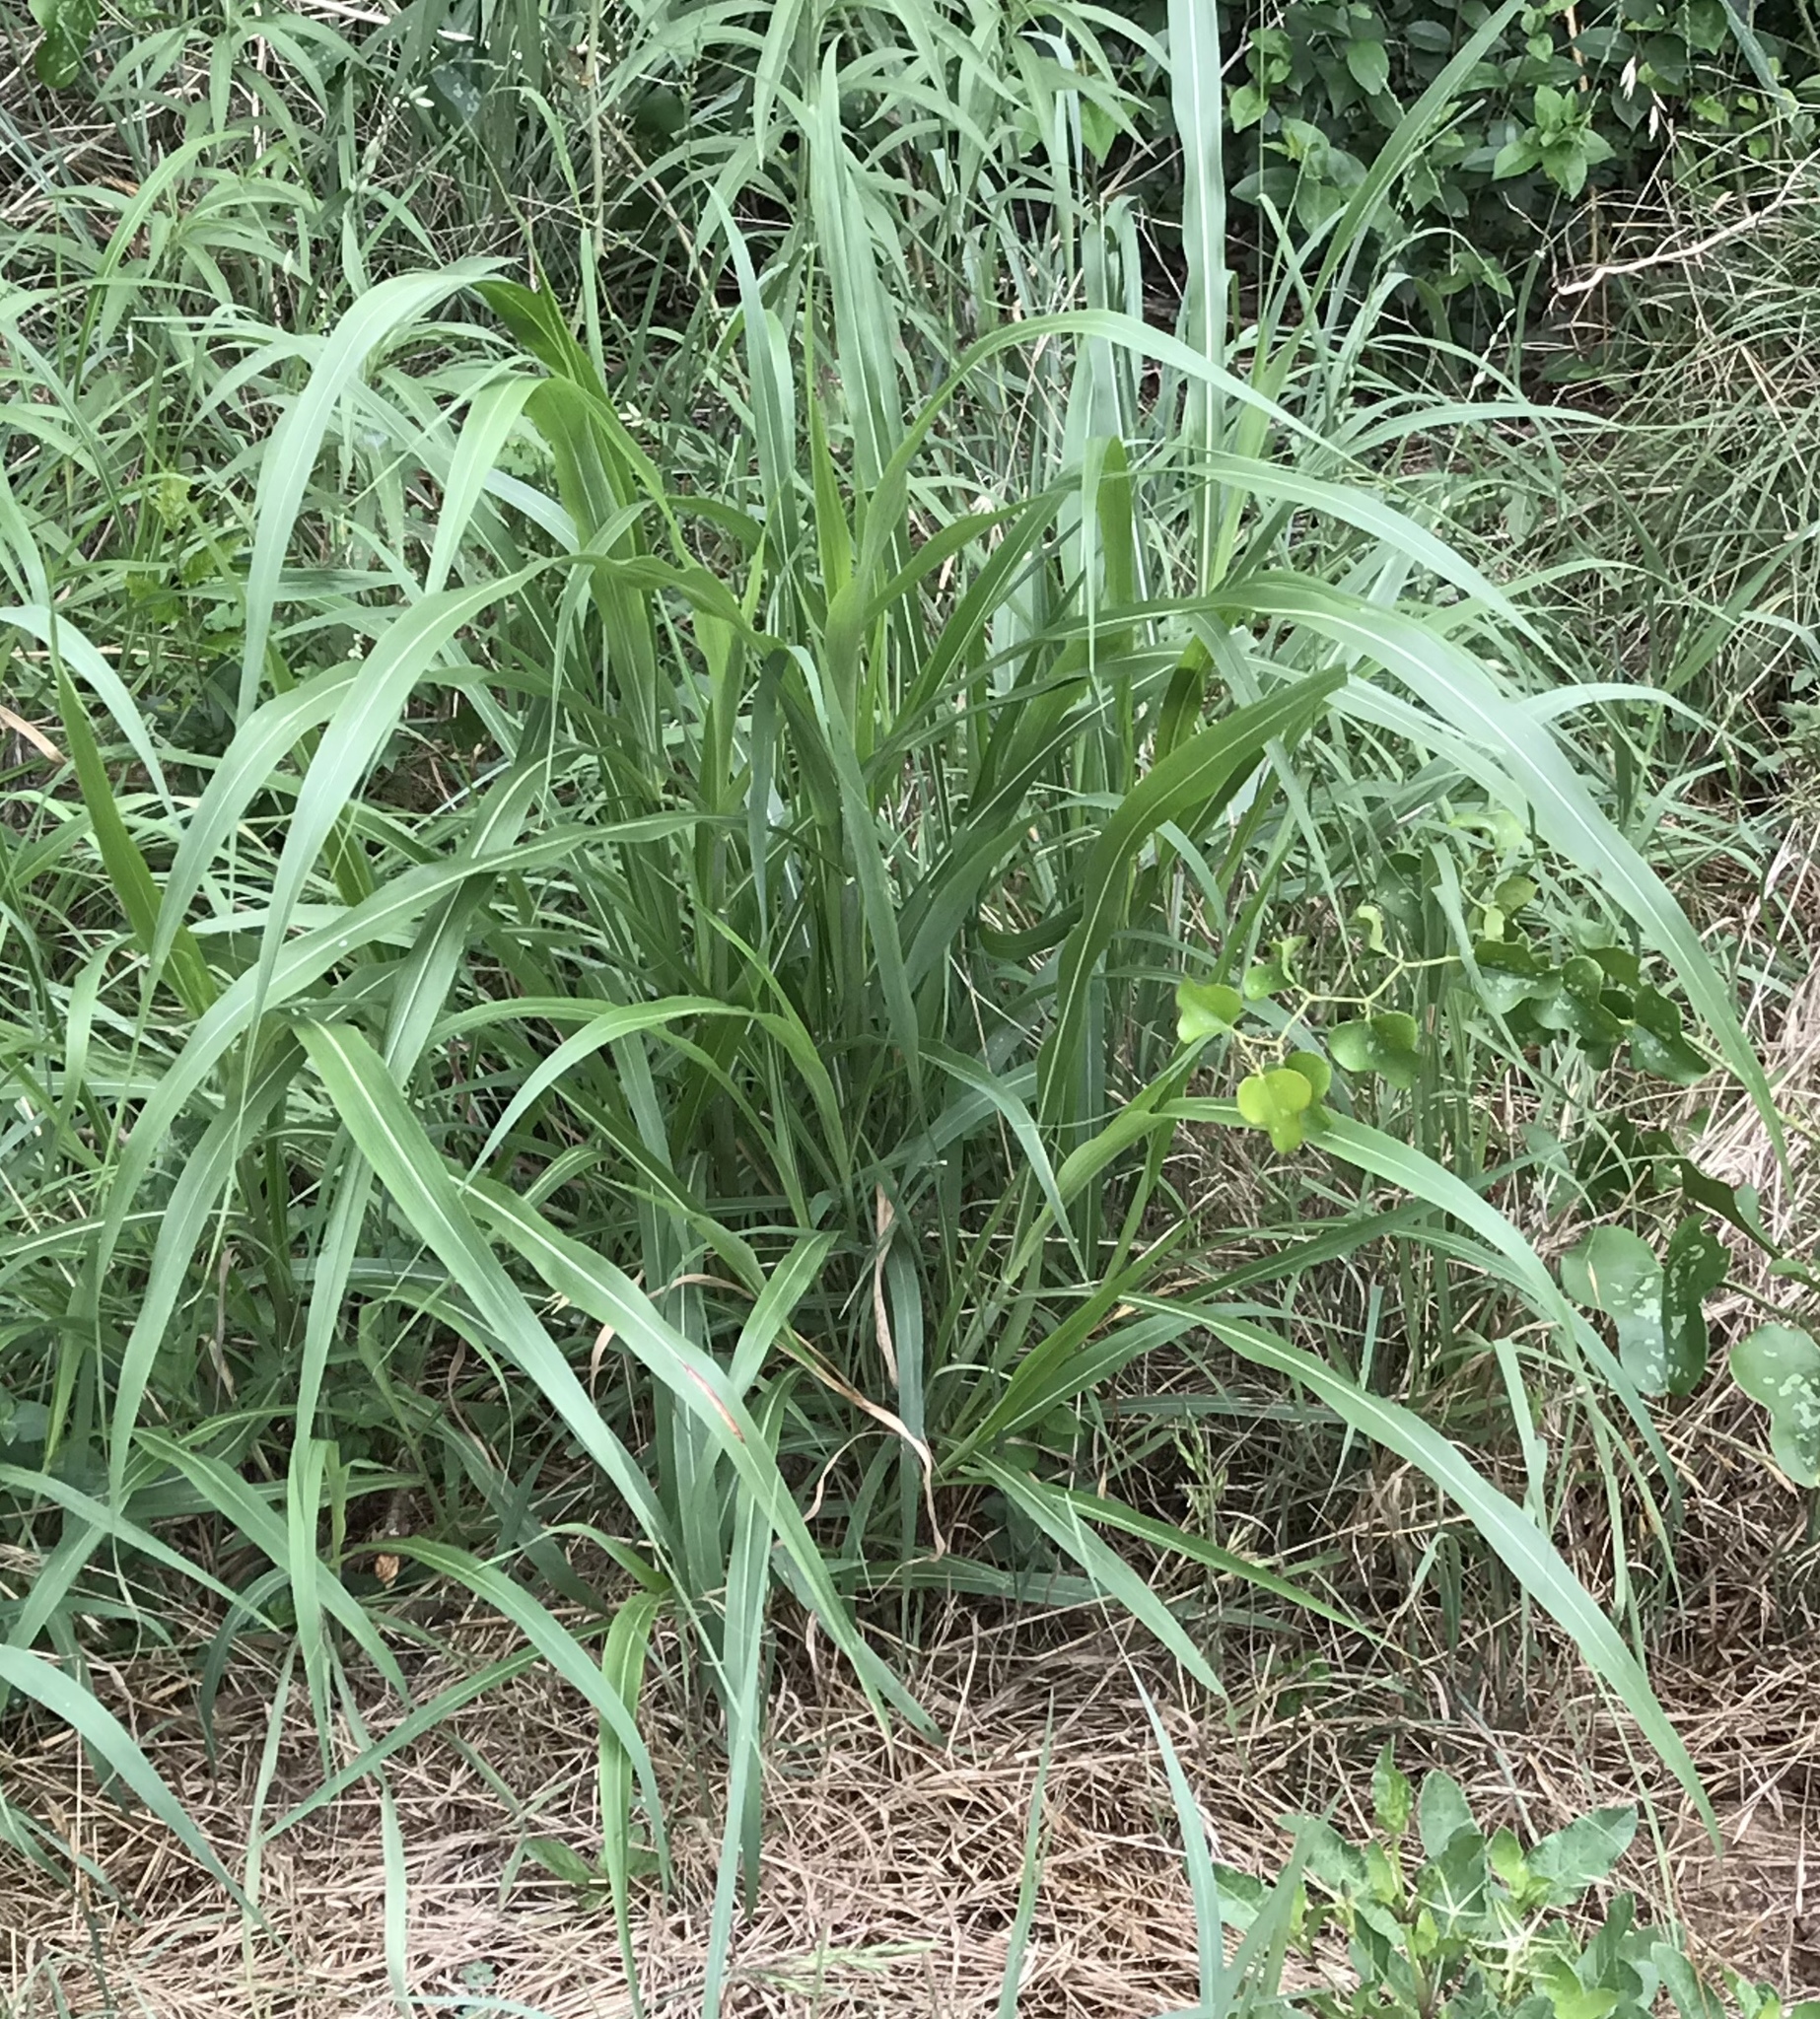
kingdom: Plantae
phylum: Tracheophyta
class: Liliopsida
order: Poales
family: Poaceae
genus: Sorghum
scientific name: Sorghum halepense
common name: Johnson-grass
